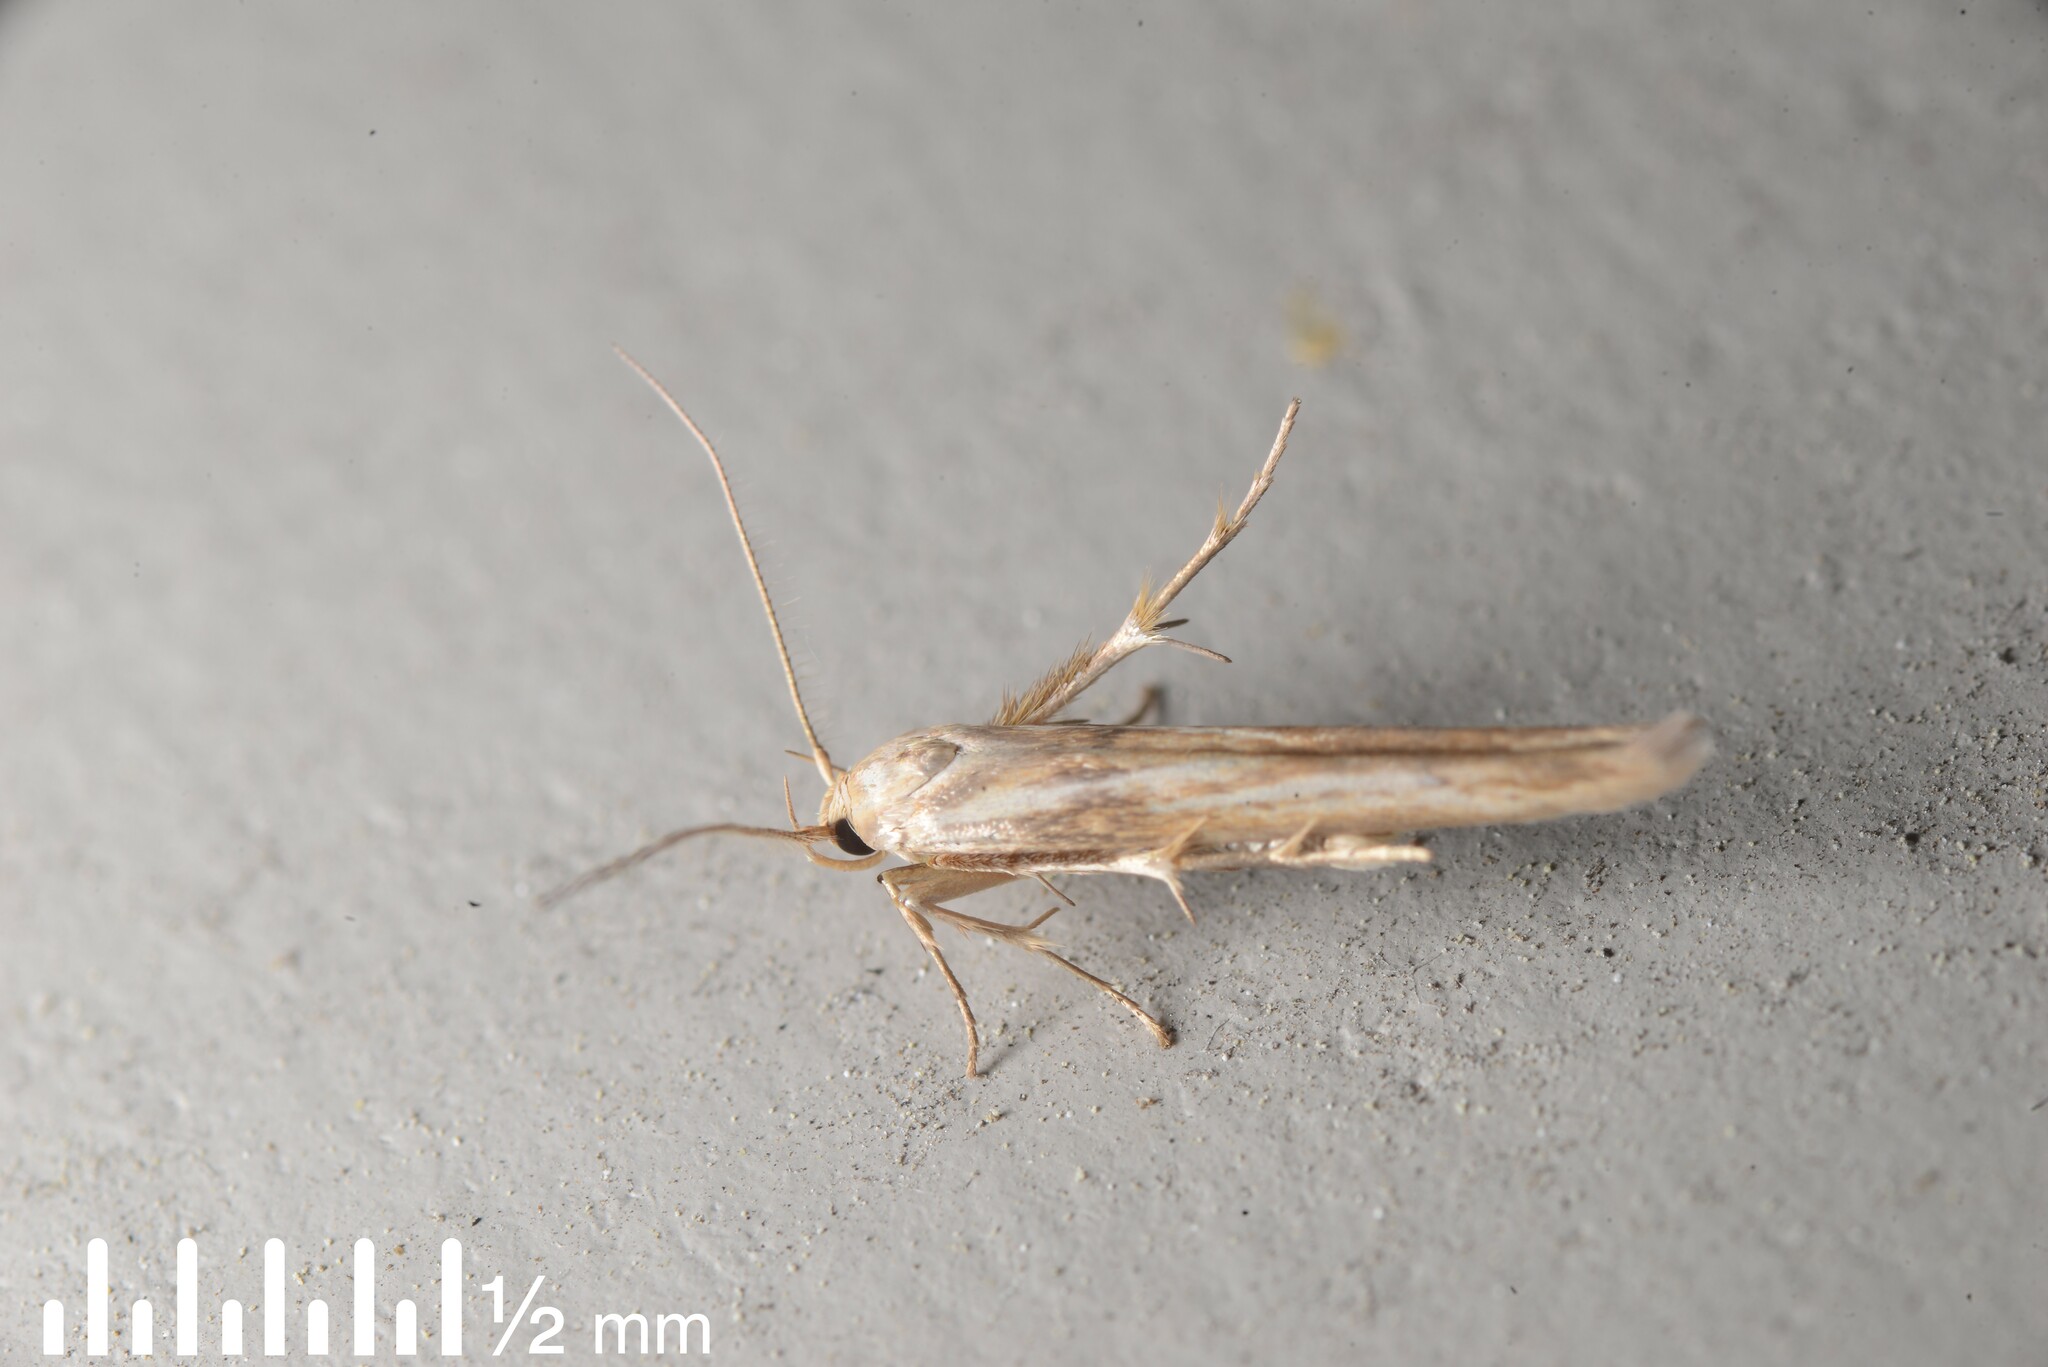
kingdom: Animalia
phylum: Arthropoda
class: Insecta
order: Lepidoptera
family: Stathmopodidae
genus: Stathmopoda
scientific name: Stathmopoda aposema
